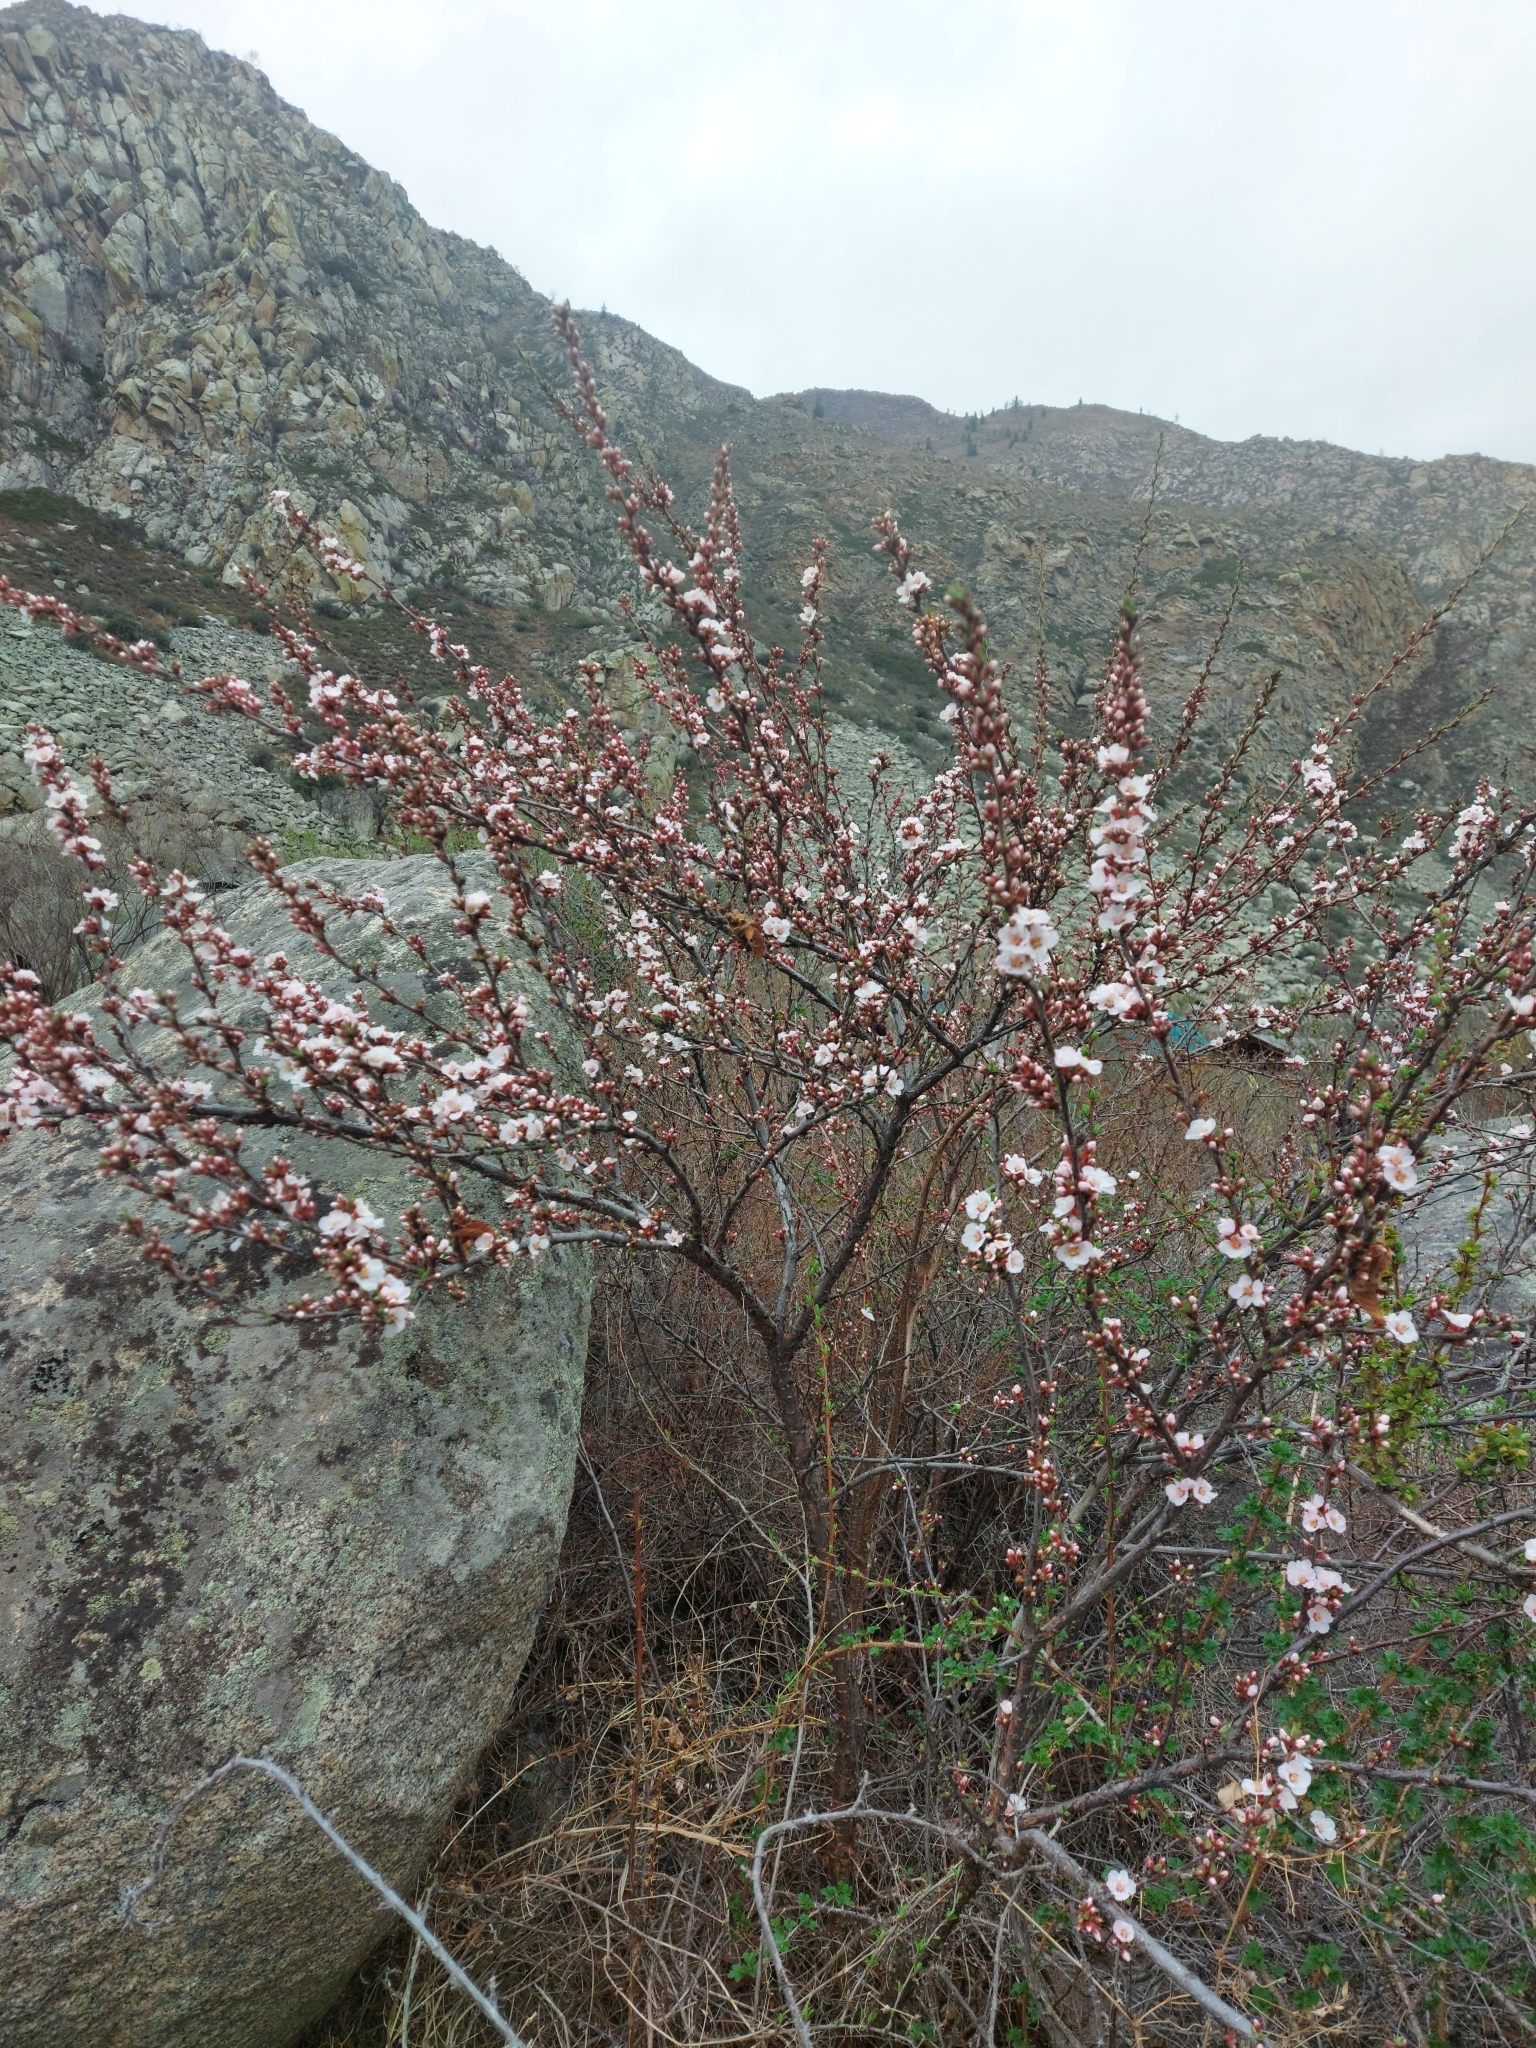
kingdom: Plantae
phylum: Tracheophyta
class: Magnoliopsida
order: Rosales
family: Rosaceae
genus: Prunus
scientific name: Prunus tomentosa
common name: Nanking cherry
